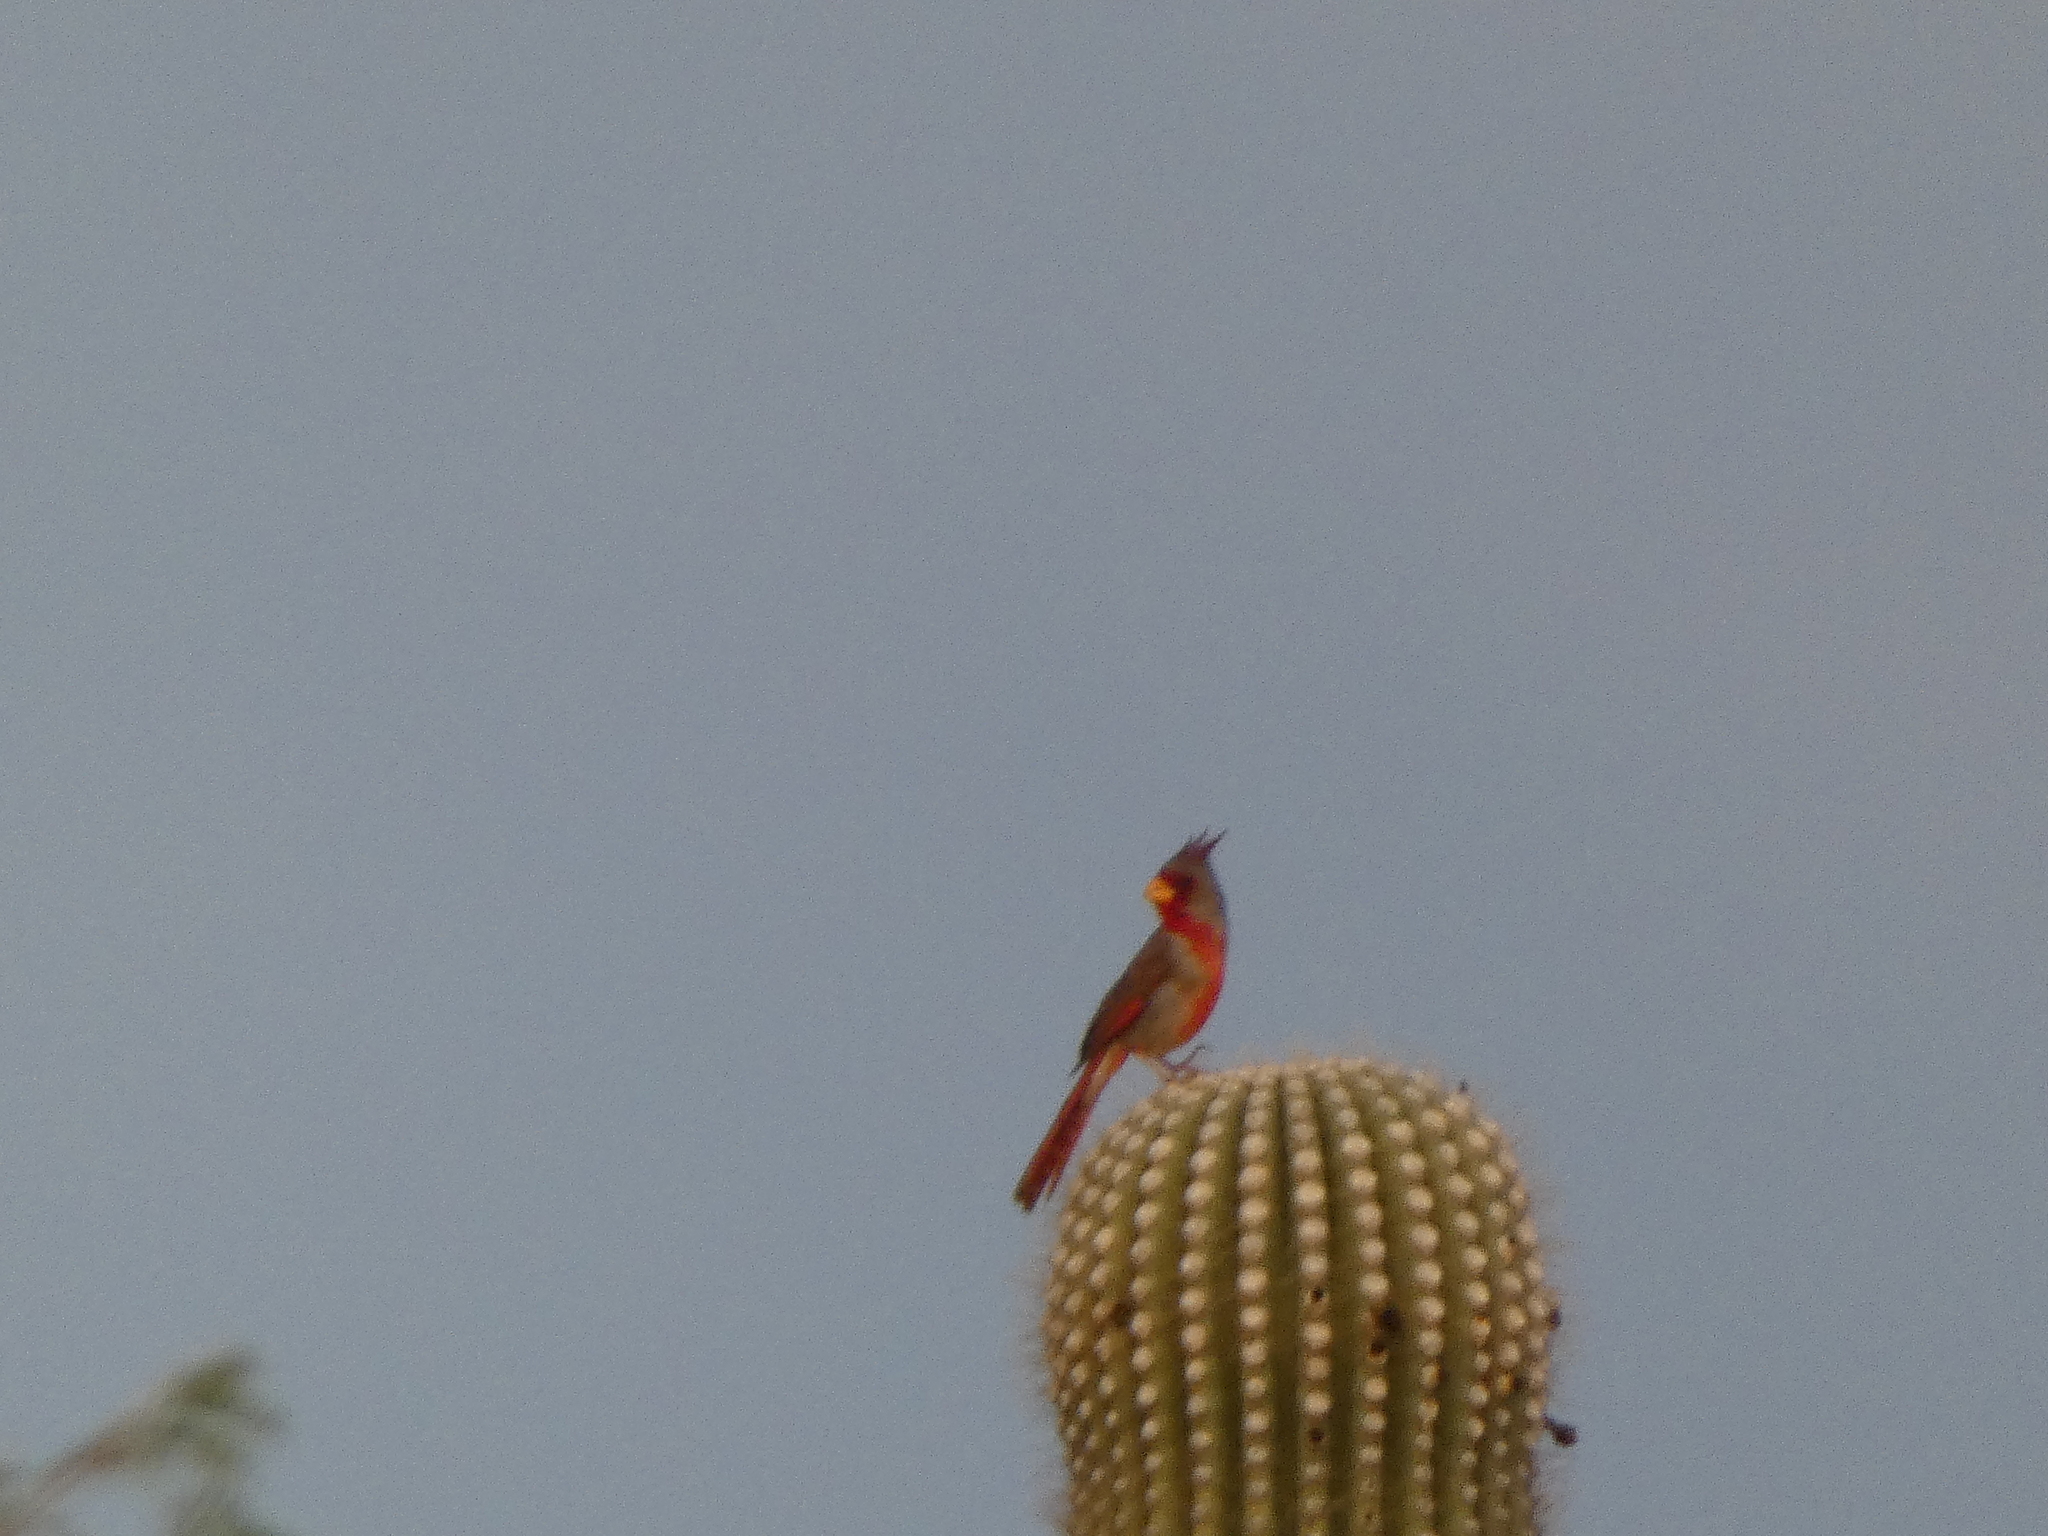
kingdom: Animalia
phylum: Chordata
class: Aves
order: Passeriformes
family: Cardinalidae
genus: Cardinalis
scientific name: Cardinalis sinuatus
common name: Pyrrhuloxia
